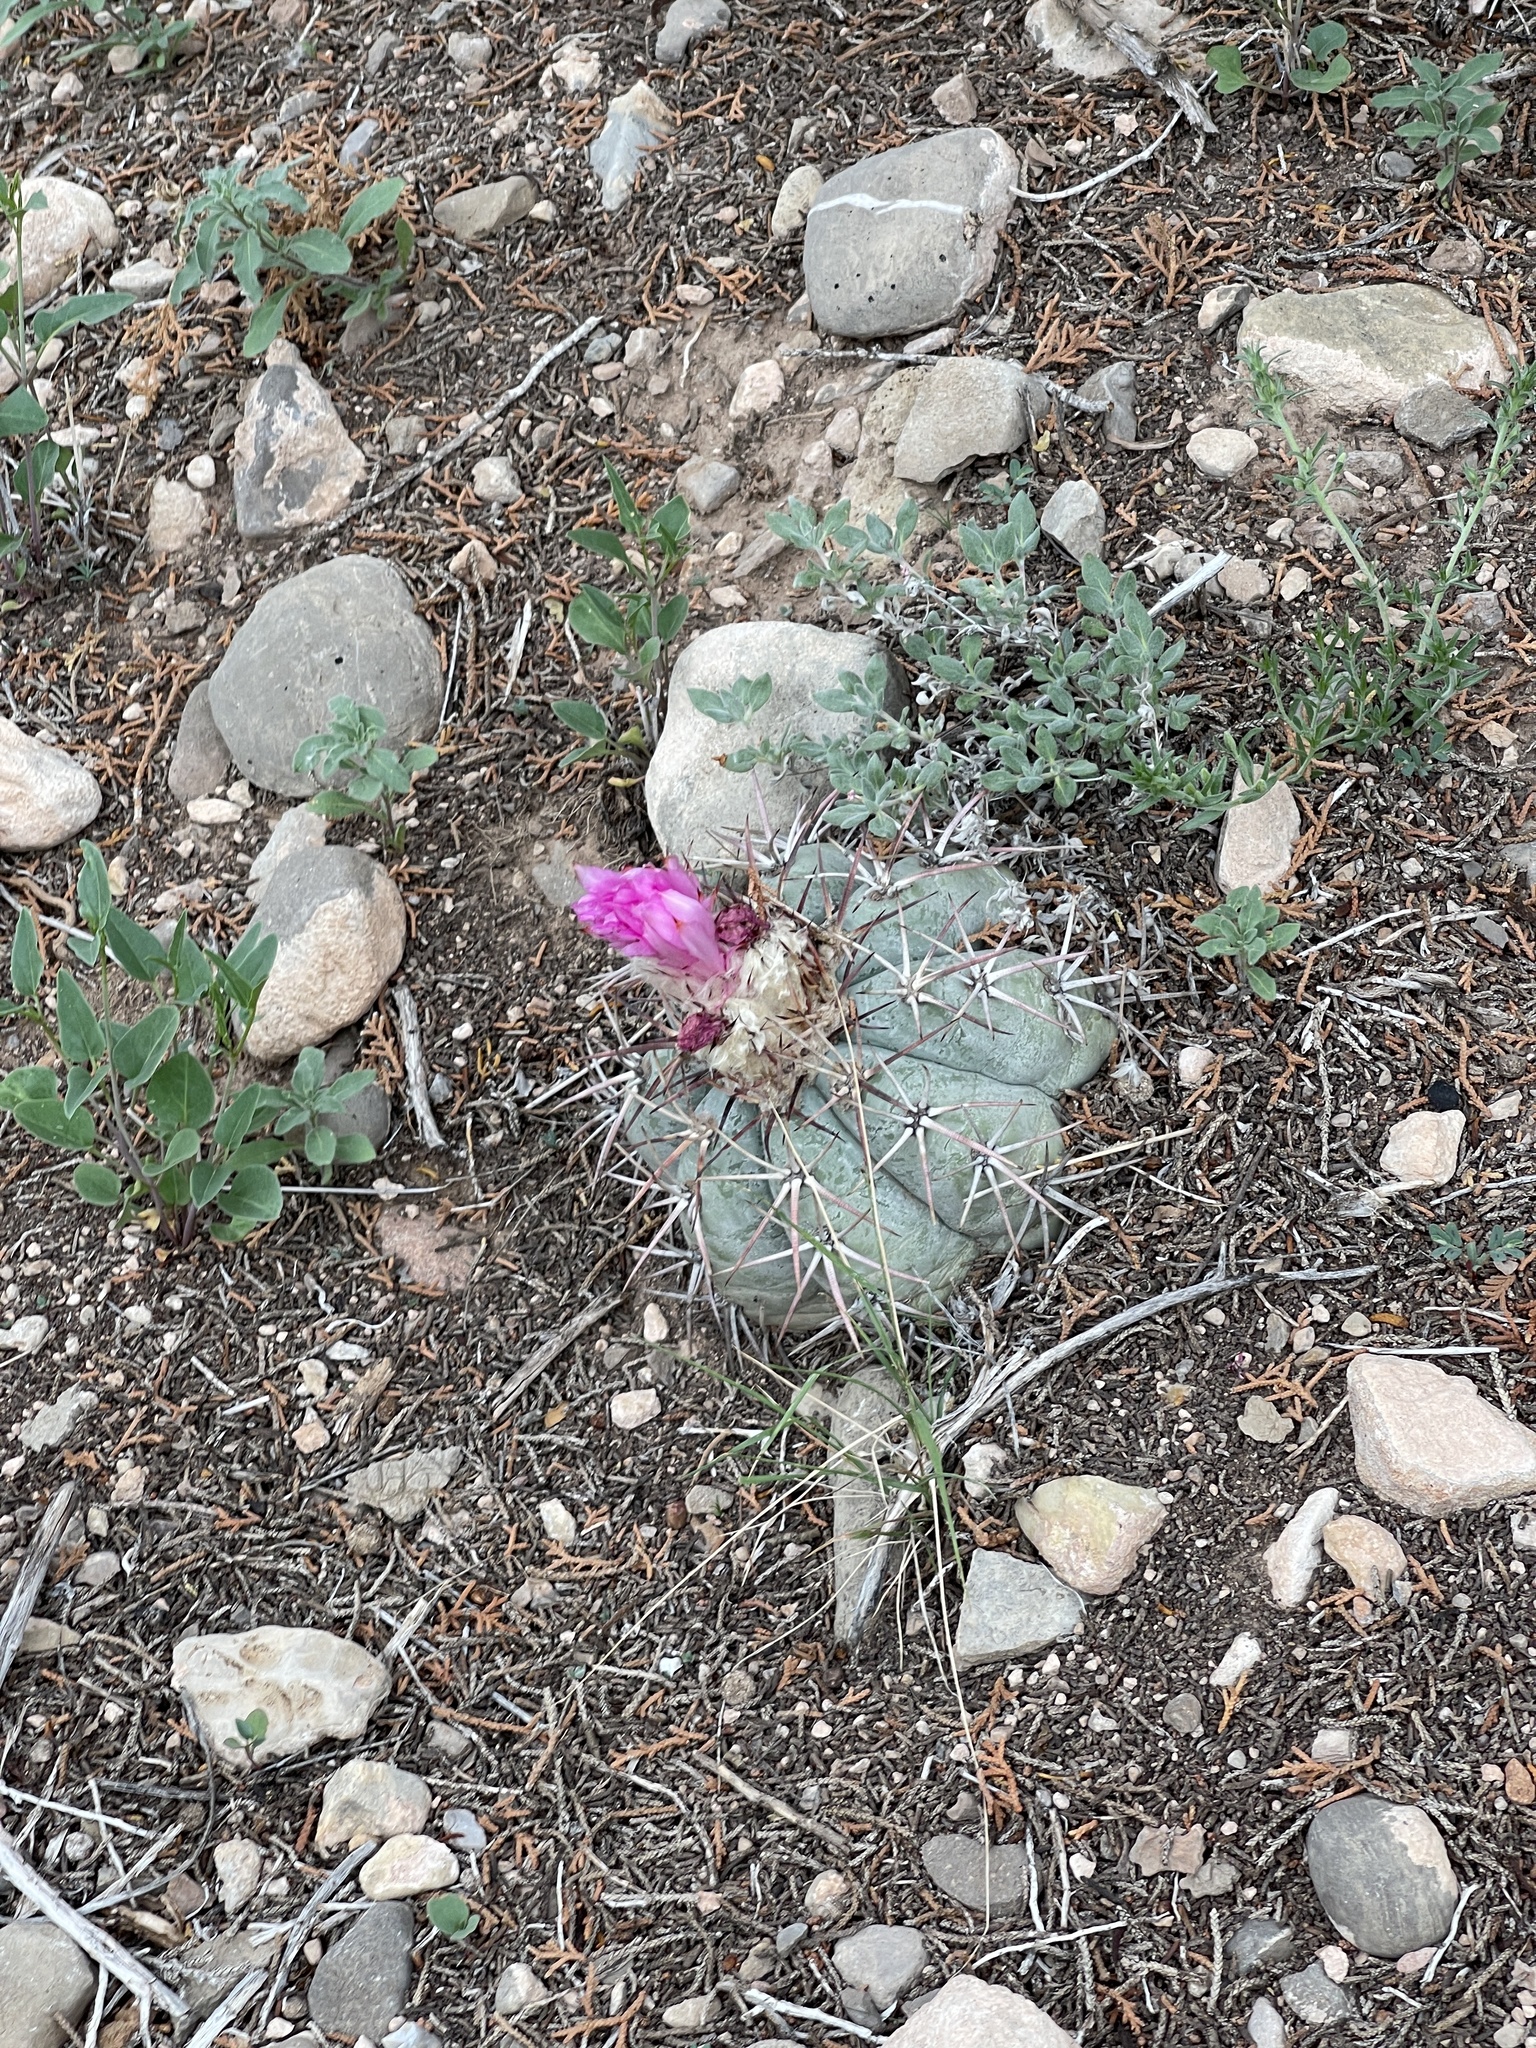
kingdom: Plantae
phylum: Tracheophyta
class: Magnoliopsida
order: Caryophyllales
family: Cactaceae
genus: Echinocactus
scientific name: Echinocactus horizonthalonius
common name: Devilshead
